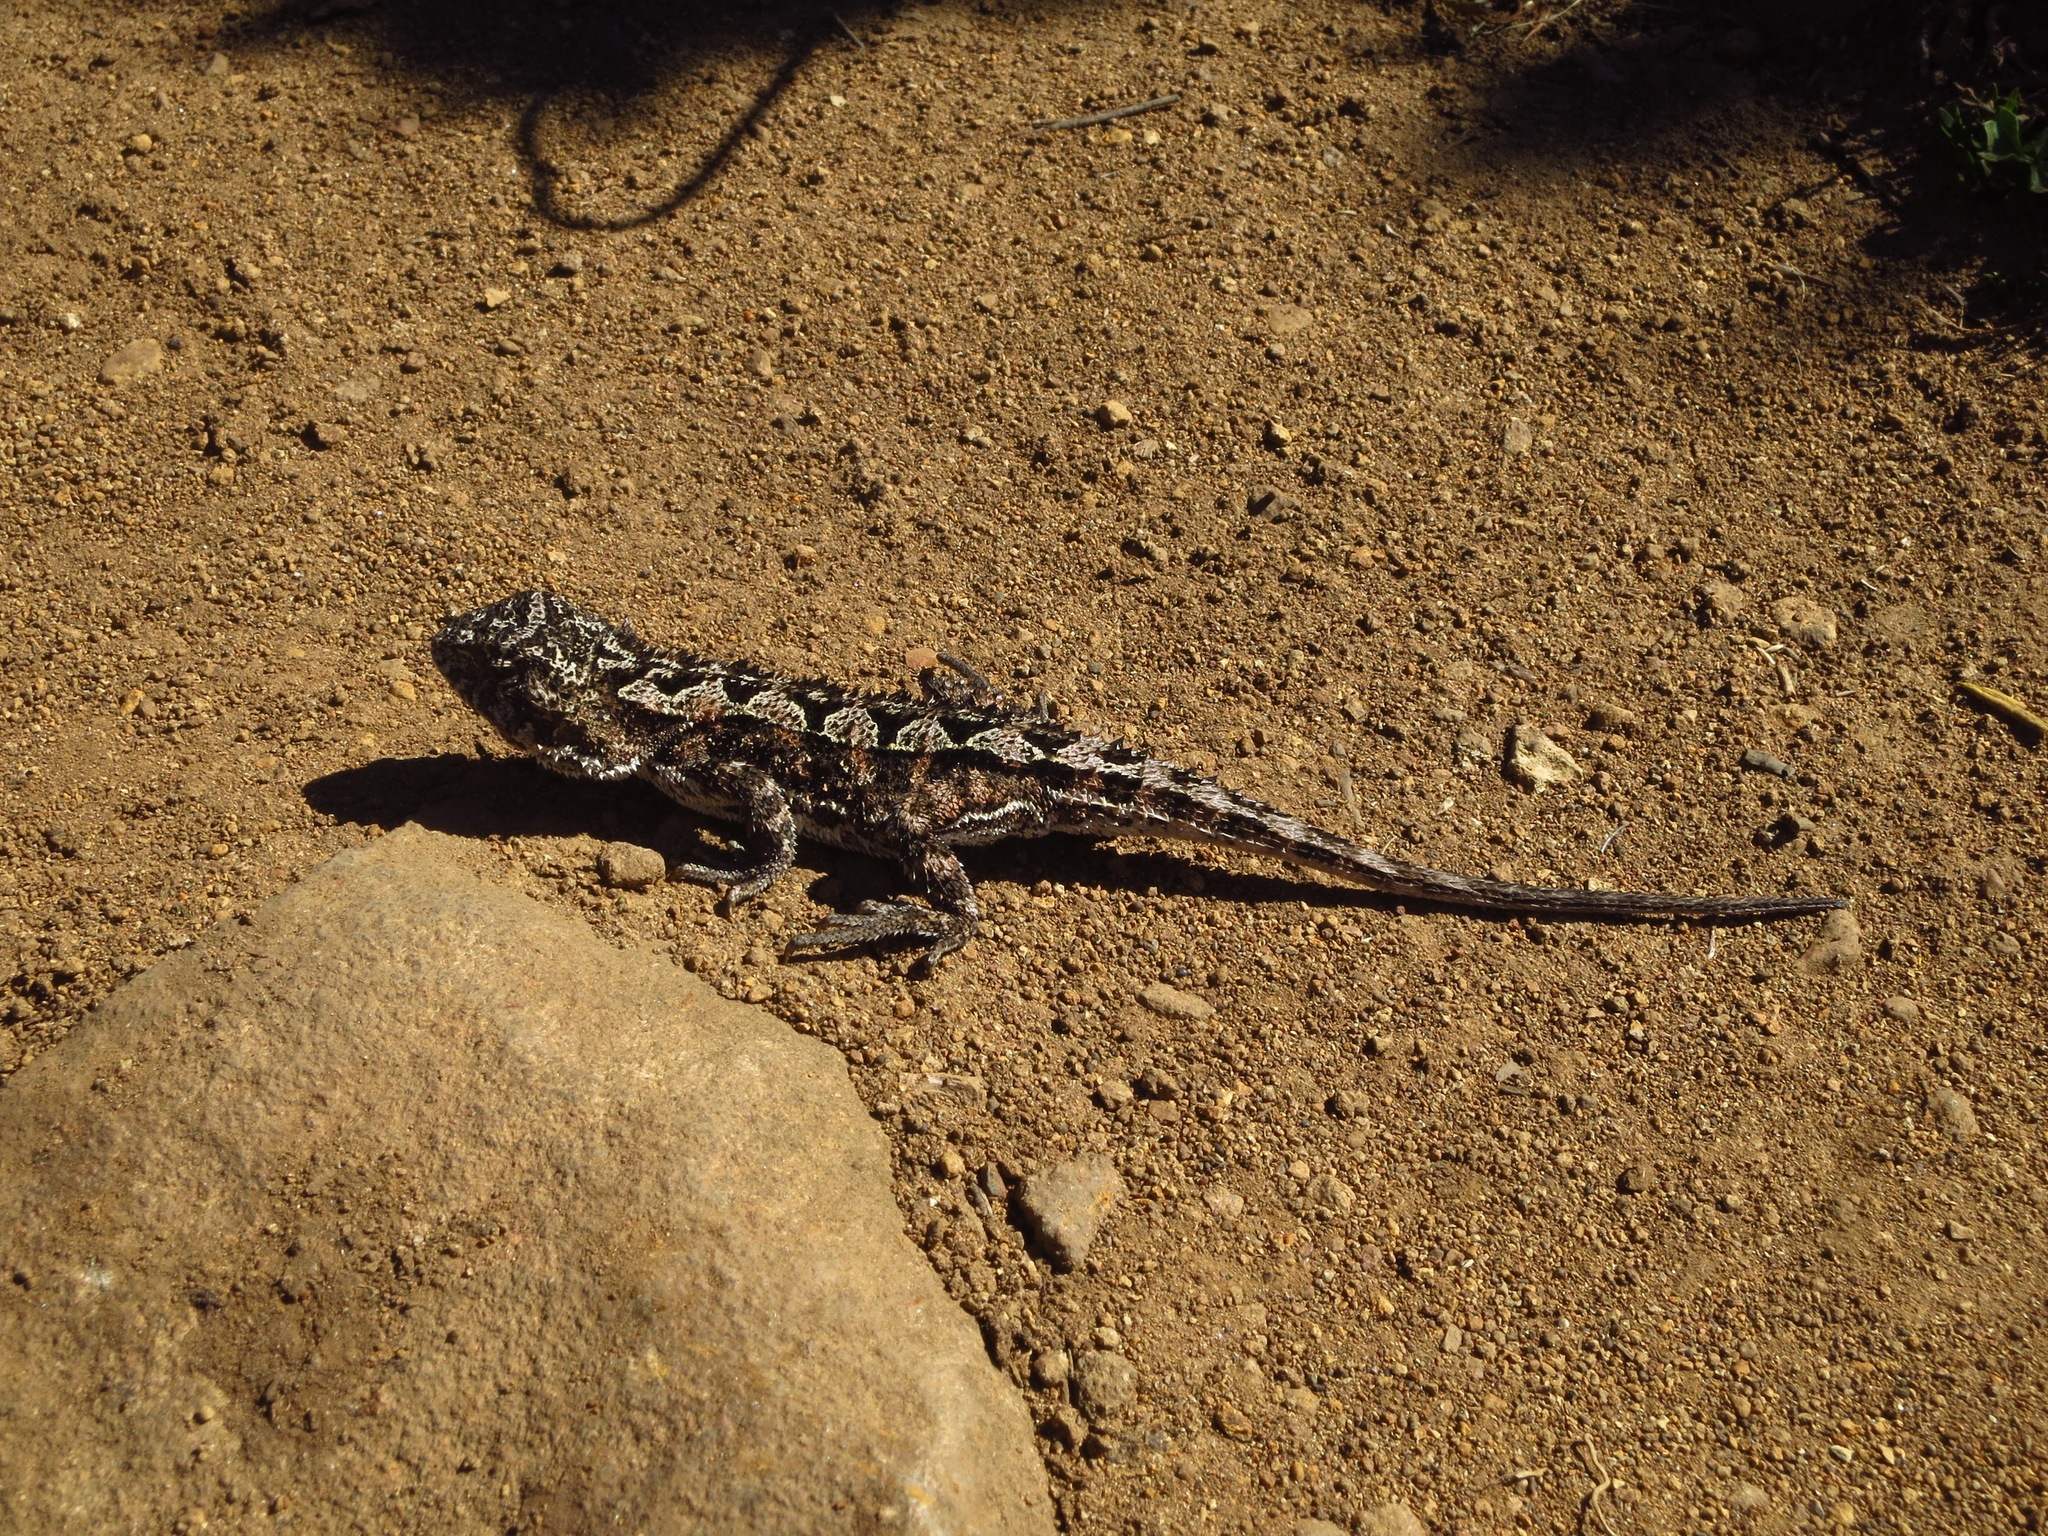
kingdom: Animalia
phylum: Chordata
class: Squamata
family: Agamidae
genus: Rankinia
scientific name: Rankinia diemensis
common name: Mountain dragon
